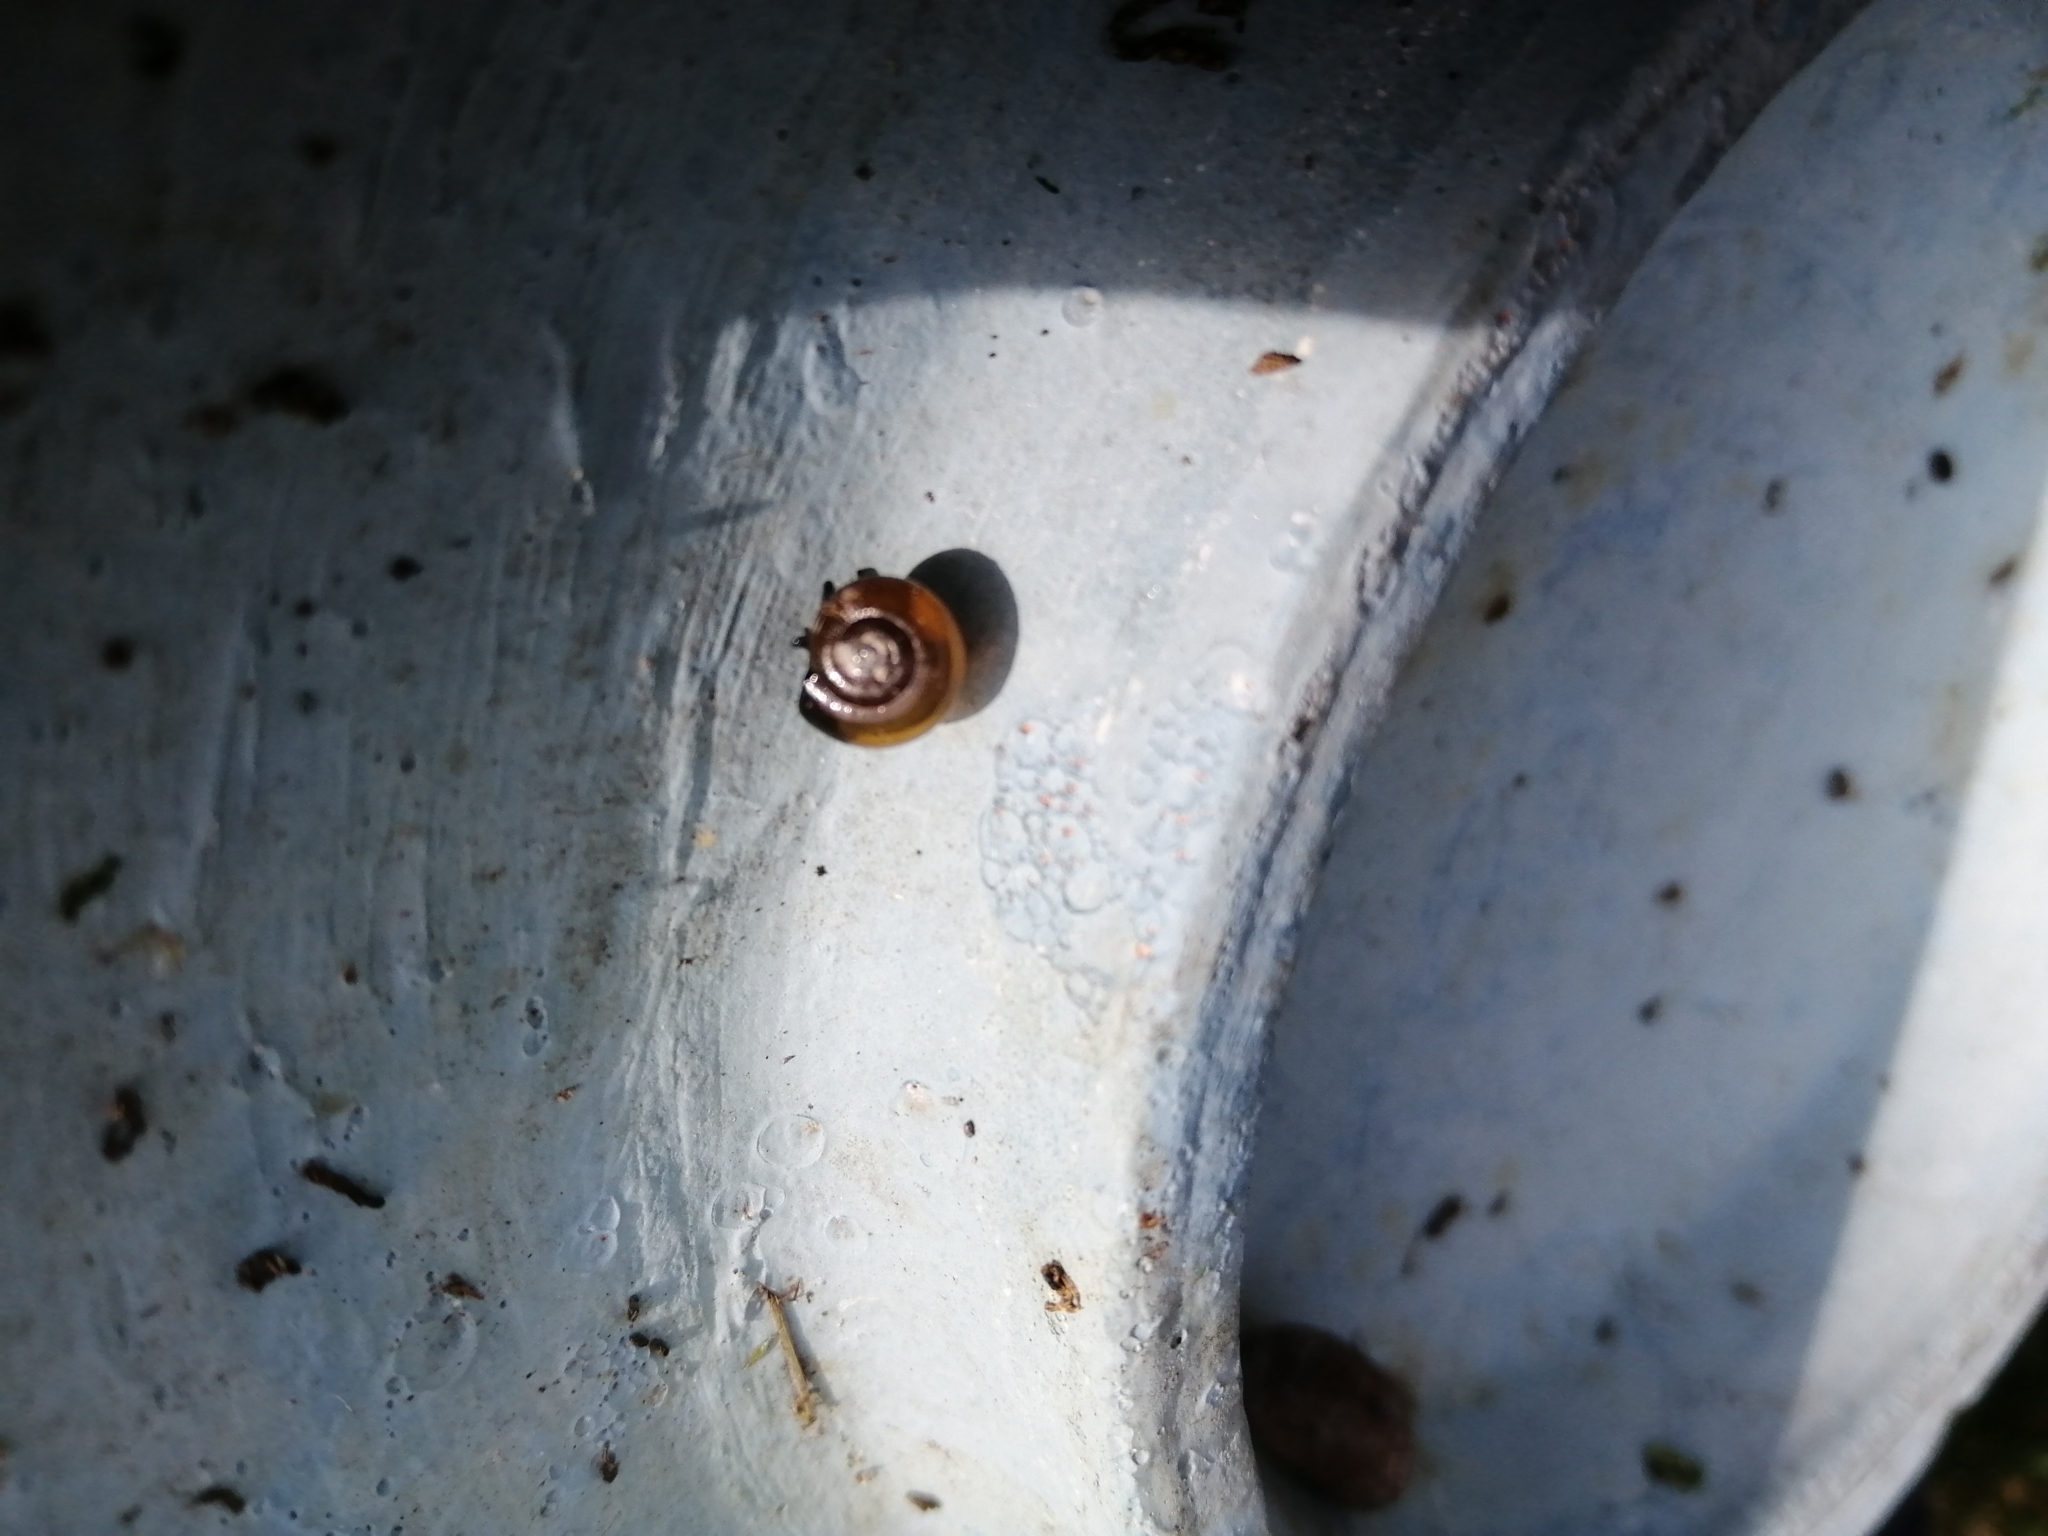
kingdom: Animalia
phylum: Mollusca
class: Gastropoda
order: Stylommatophora
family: Oxychilidae
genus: Oxychilus
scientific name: Oxychilus alliarius
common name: Garlic glass-snail
